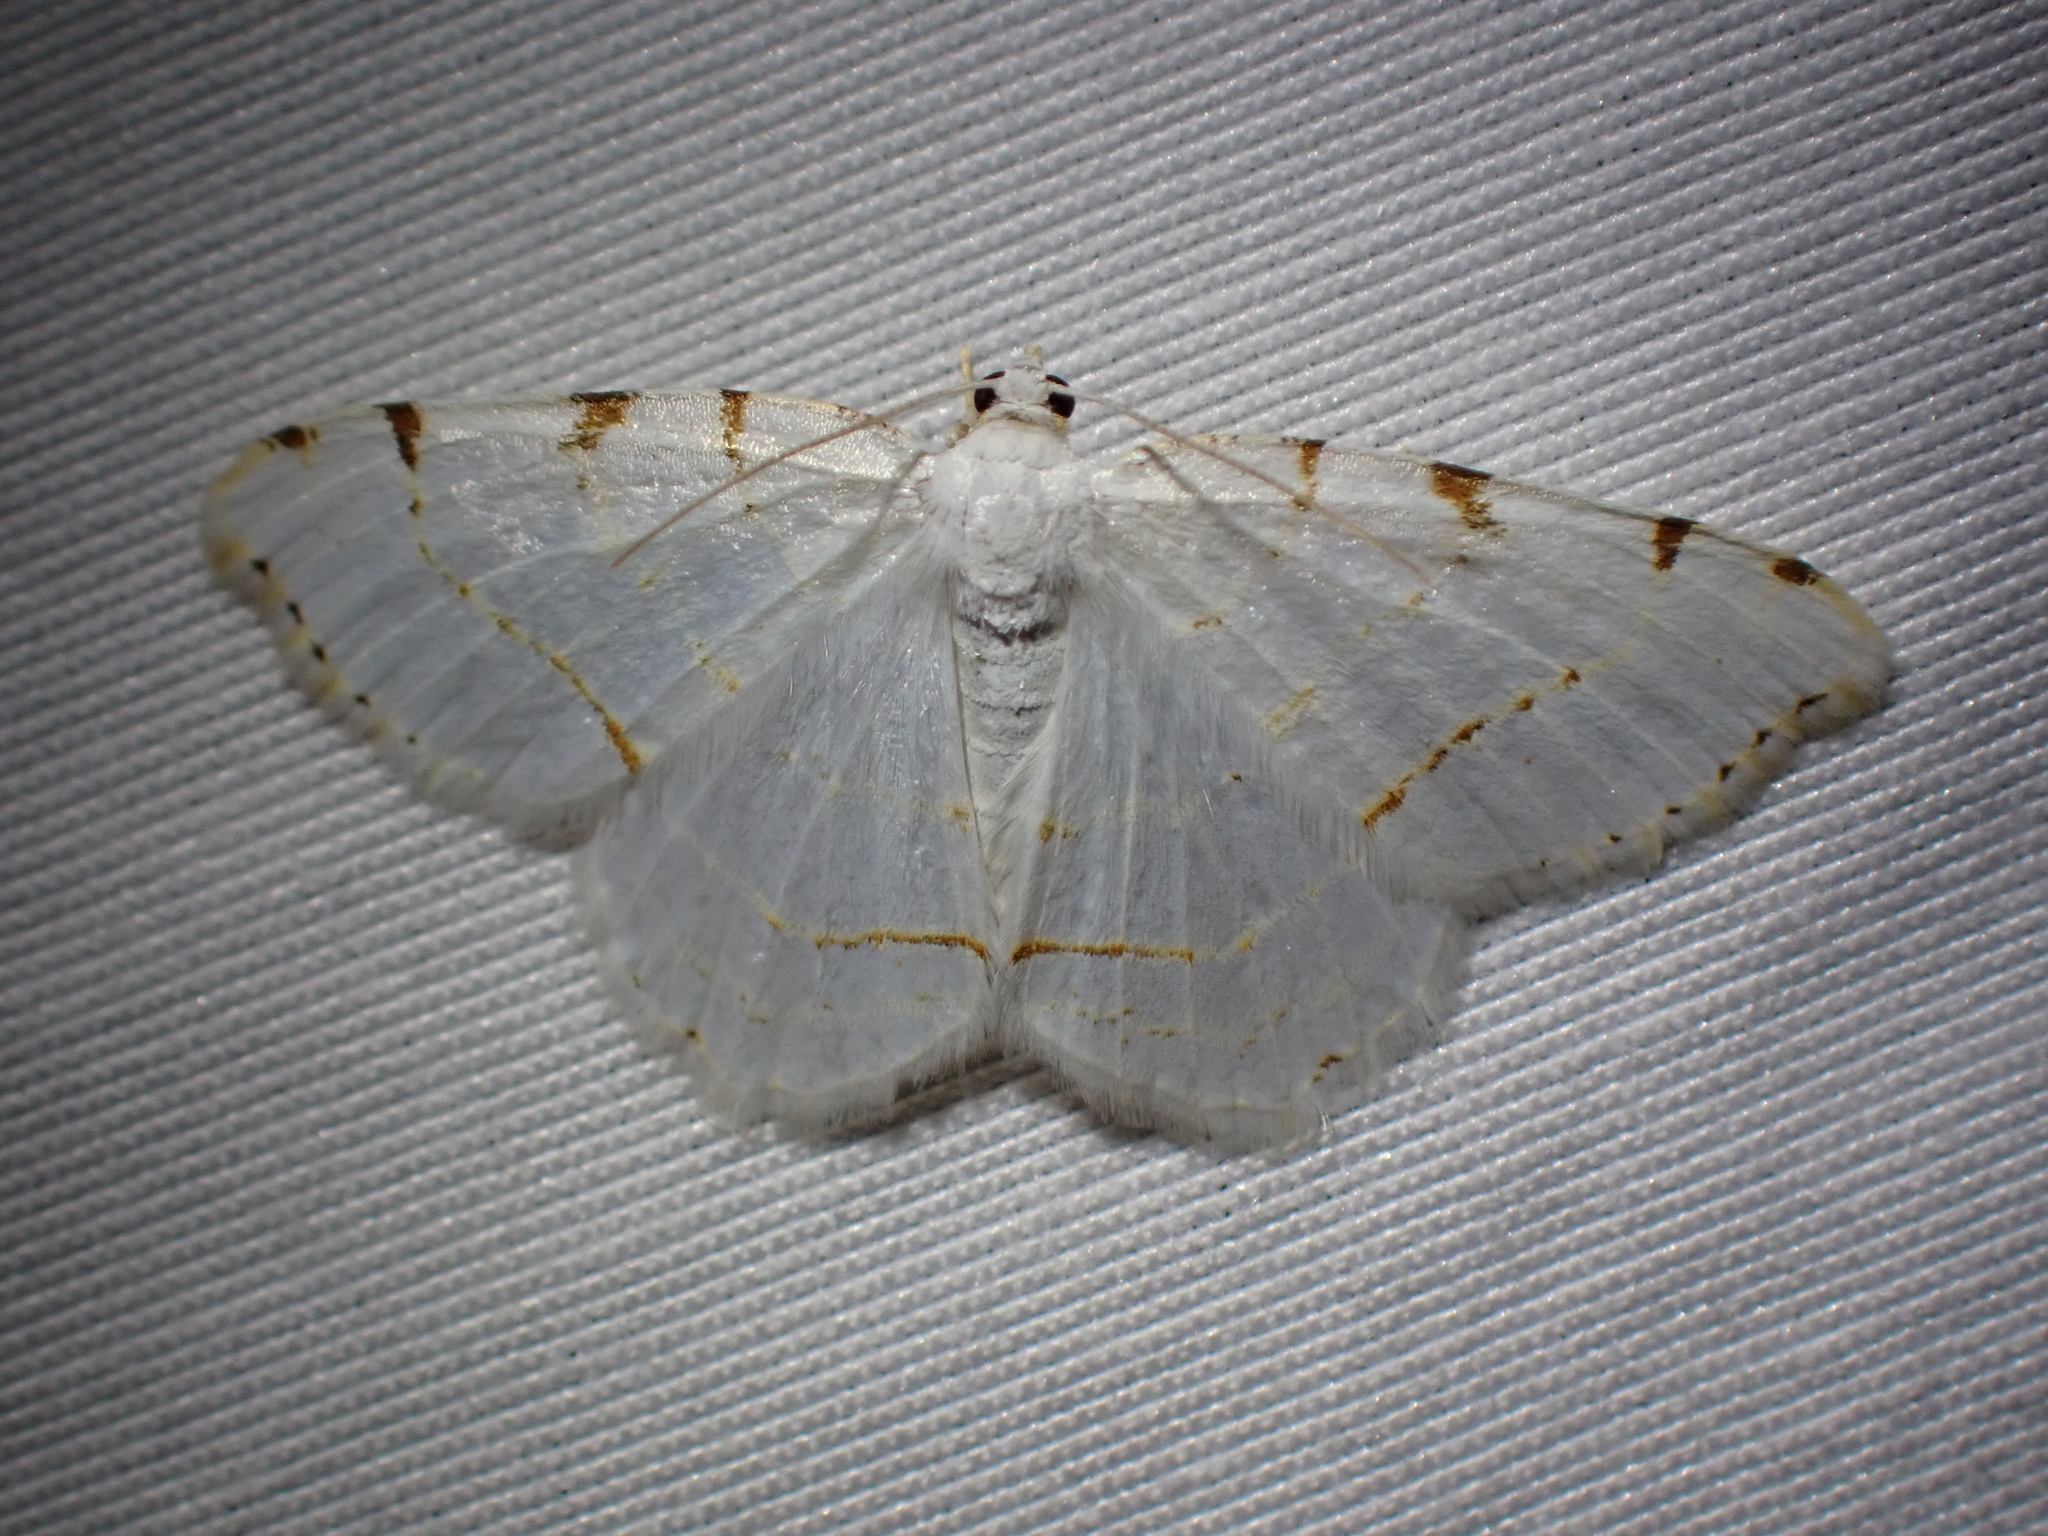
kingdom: Animalia
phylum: Arthropoda
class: Insecta
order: Lepidoptera
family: Geometridae
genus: Macaria
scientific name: Macaria pustularia
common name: Lesser maple spanworm moth
